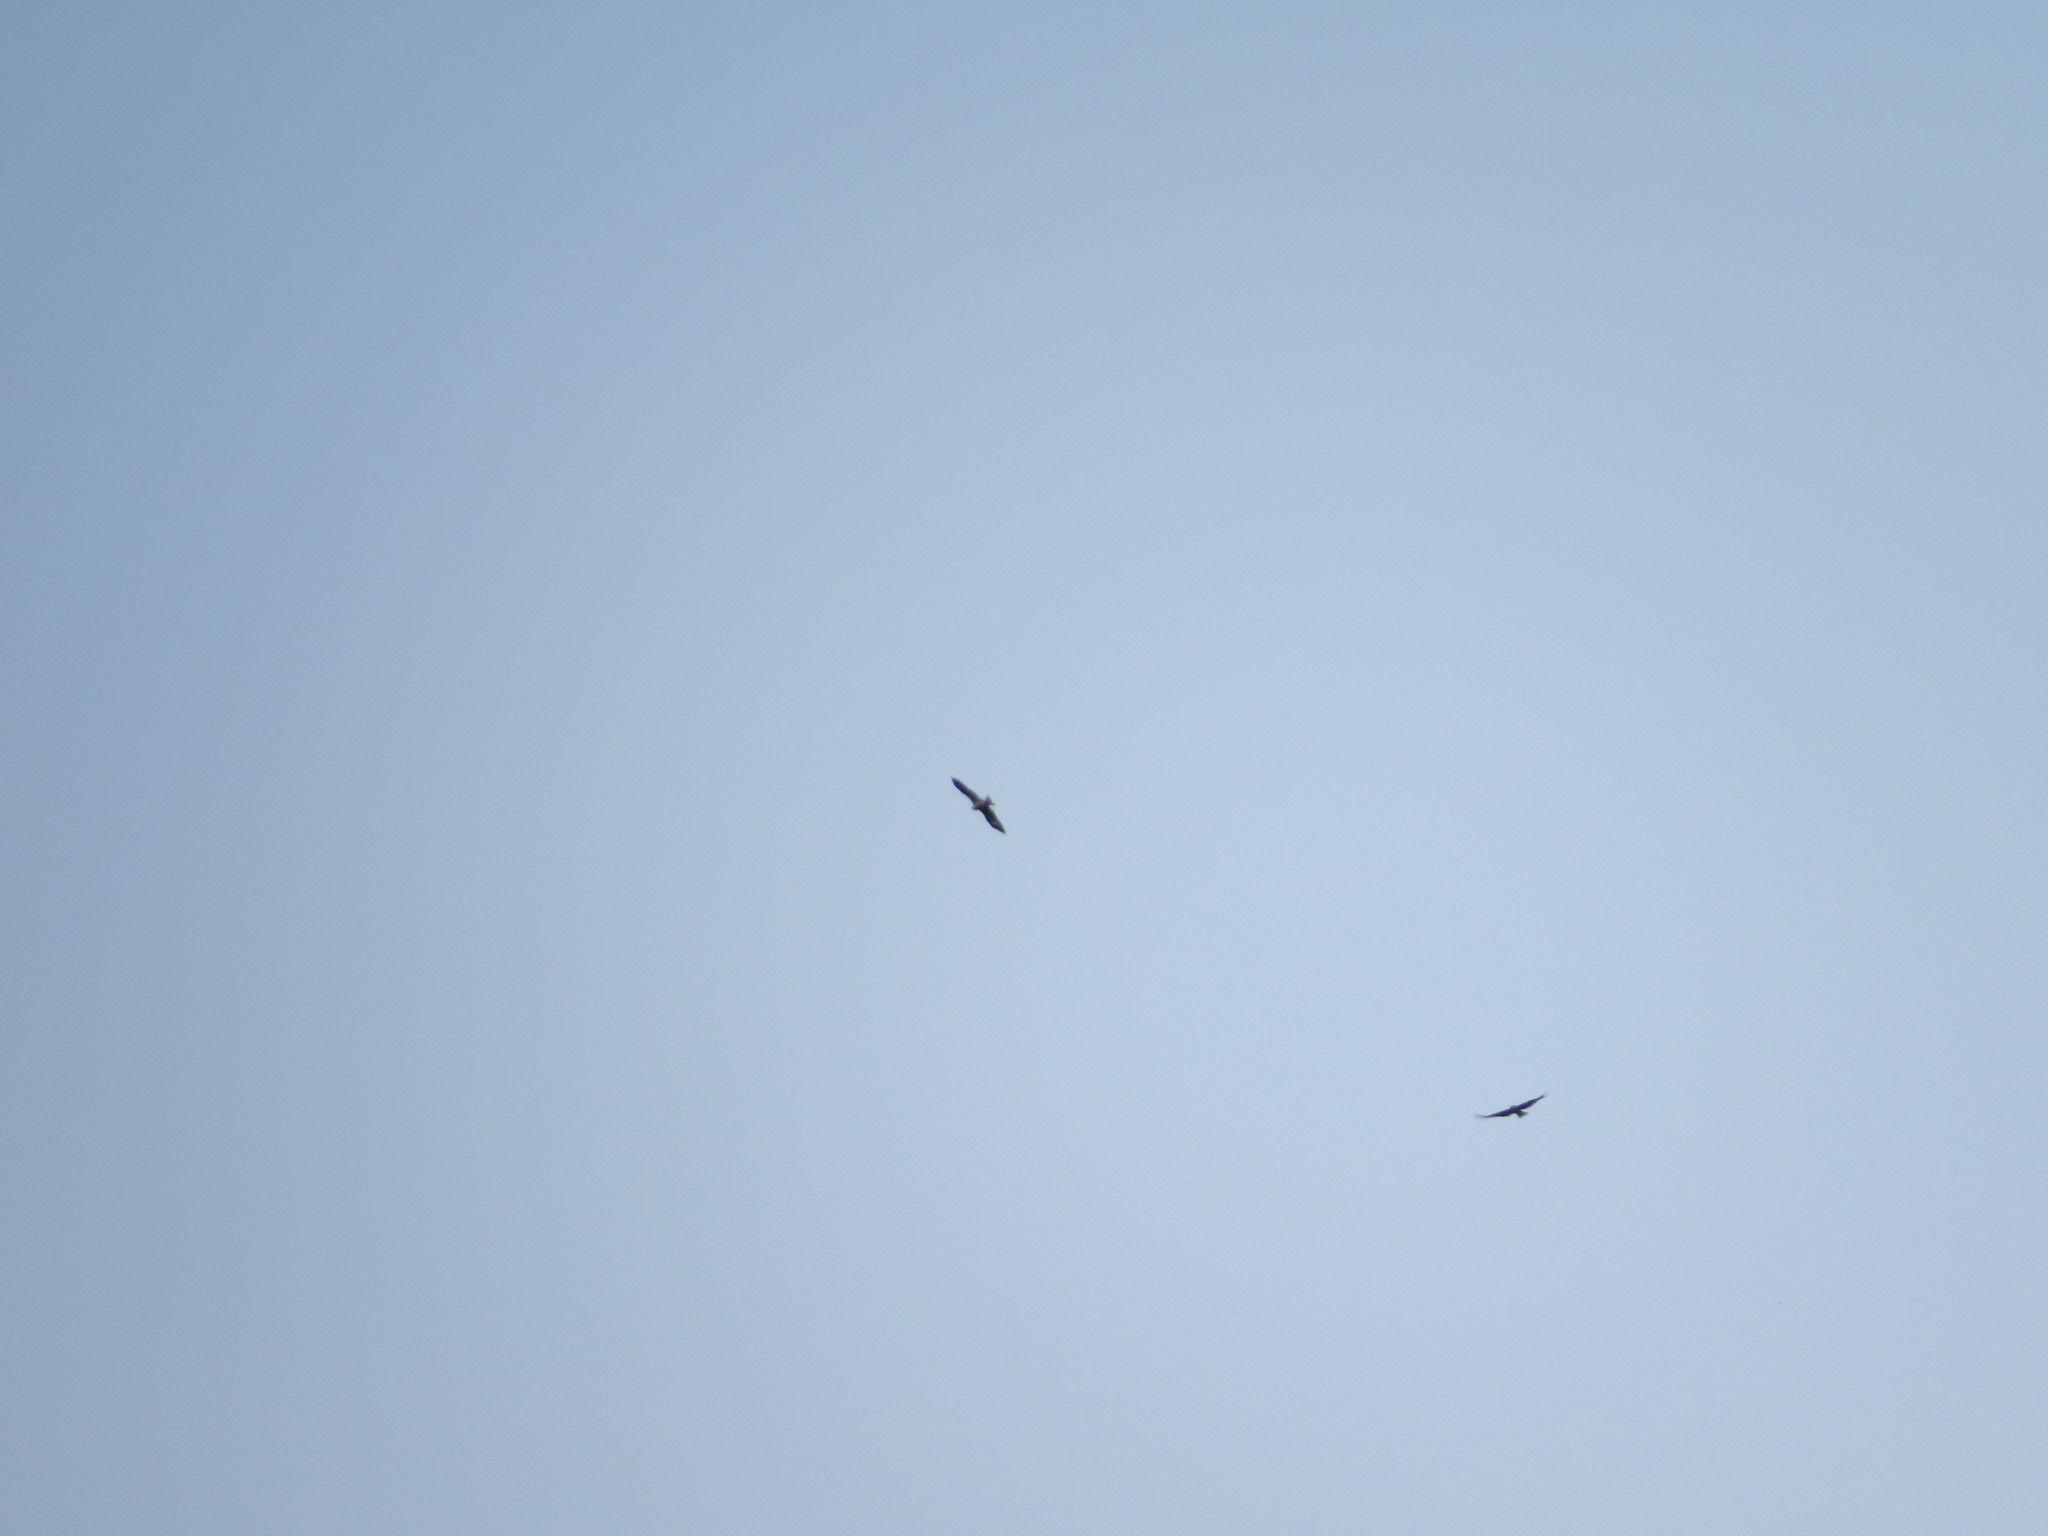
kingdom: Animalia
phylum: Chordata
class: Aves
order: Accipitriformes
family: Accipitridae
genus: Milvus
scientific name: Milvus migrans
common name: Black kite
